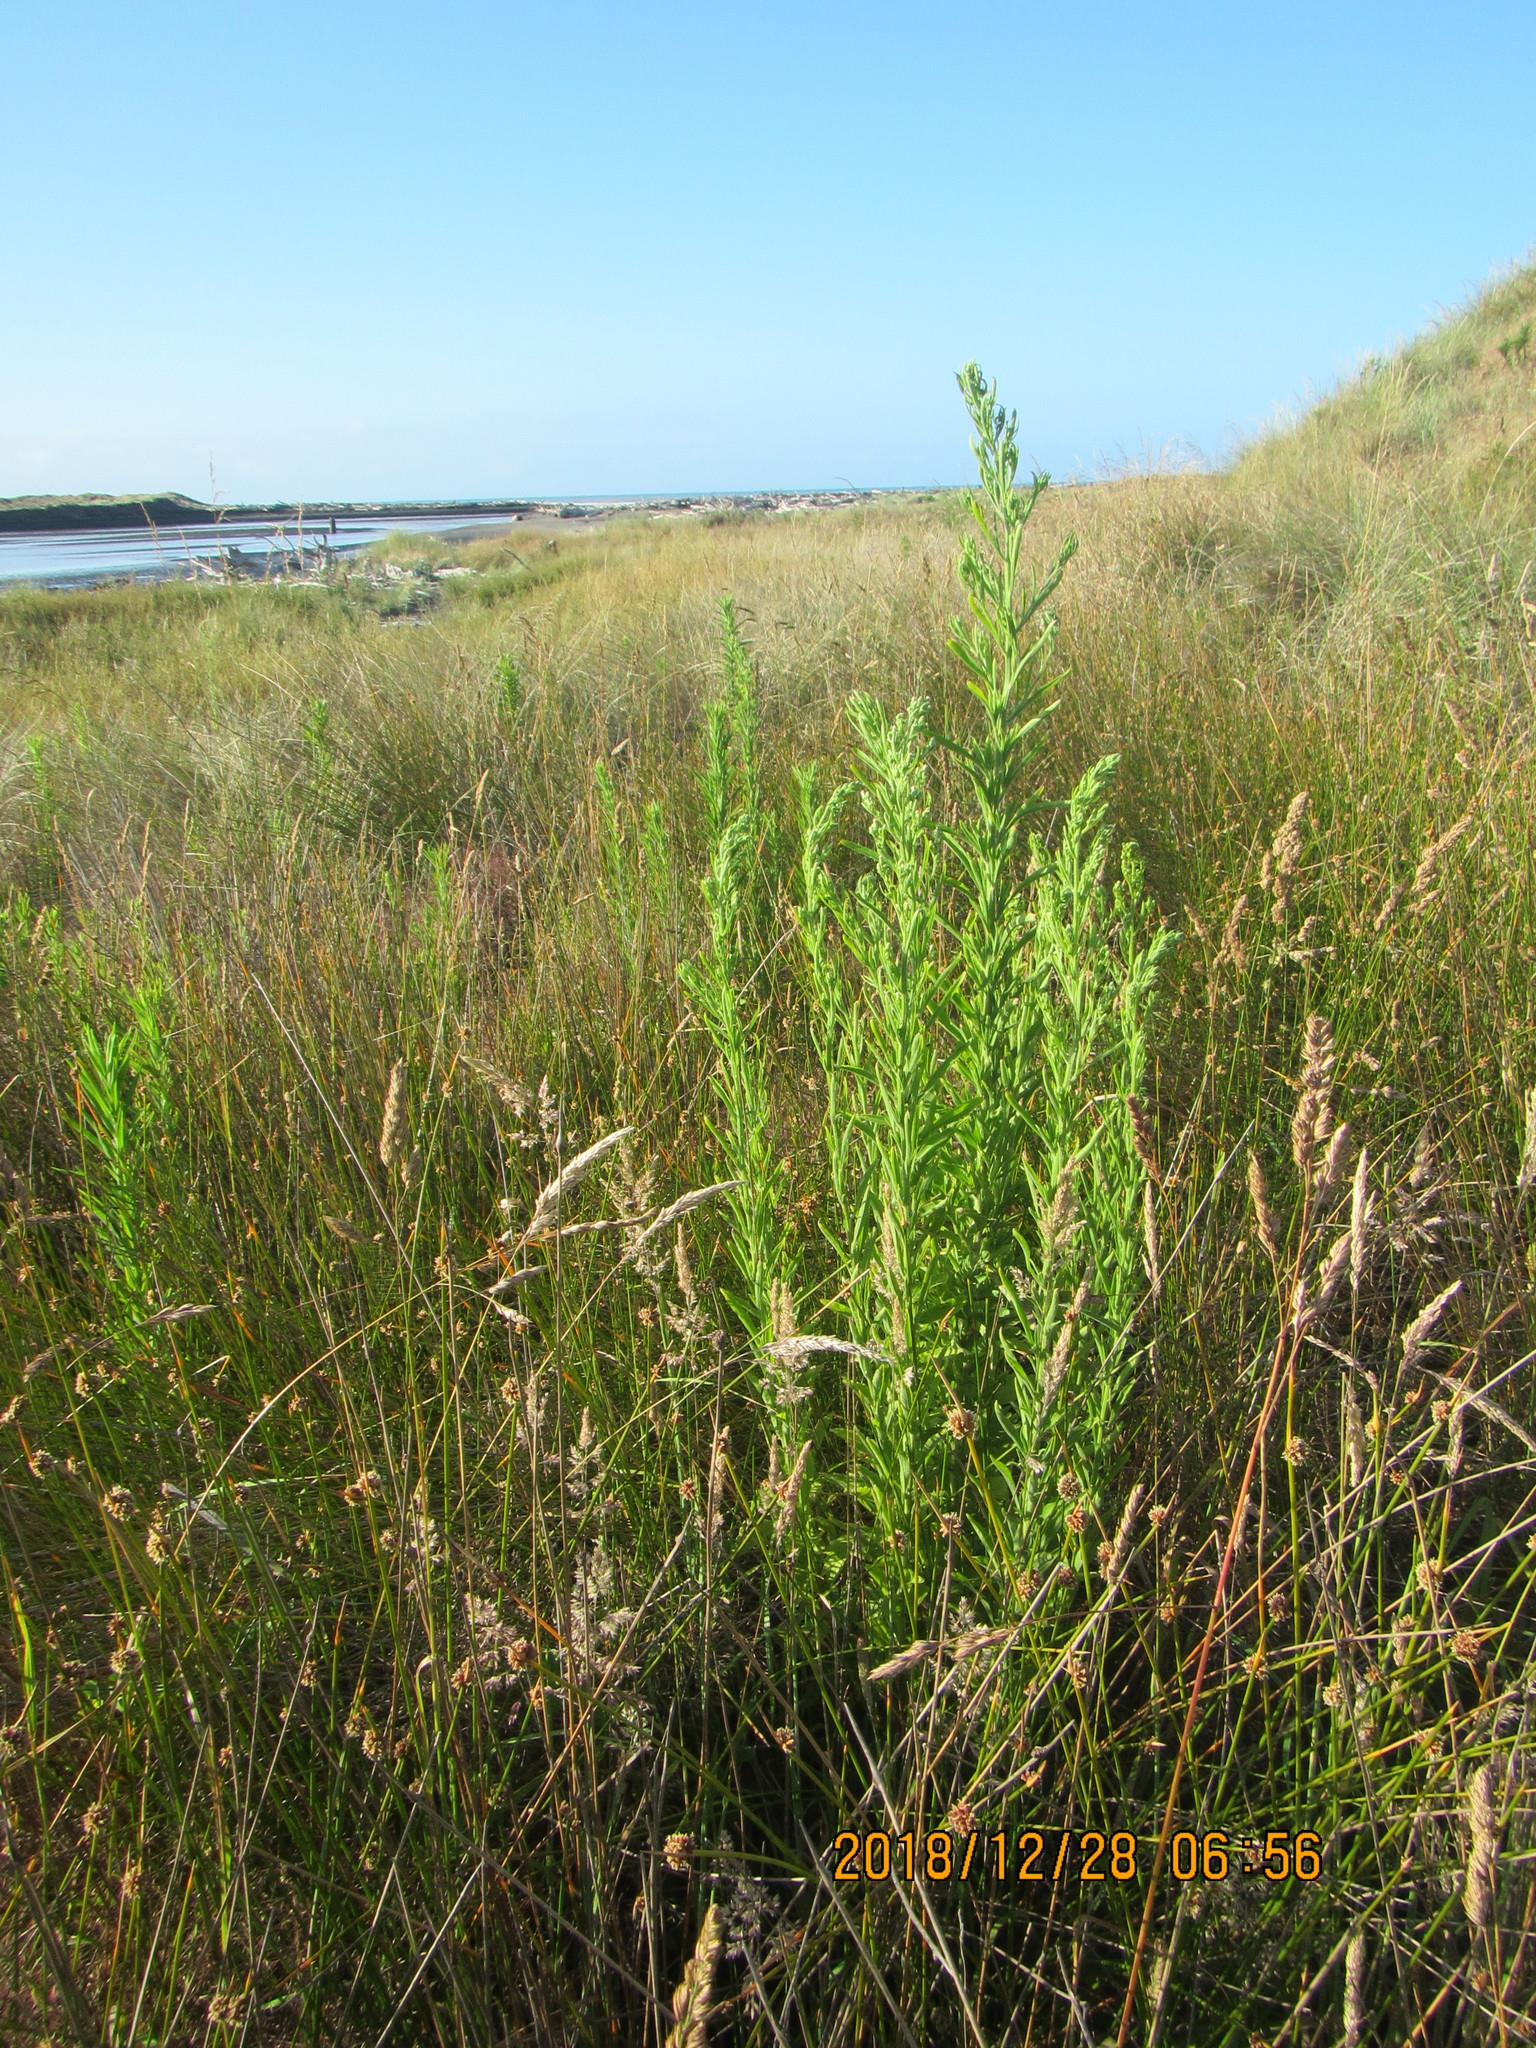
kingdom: Plantae
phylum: Tracheophyta
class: Magnoliopsida
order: Asterales
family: Asteraceae
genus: Erigeron
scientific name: Erigeron sumatrensis
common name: Daisy
